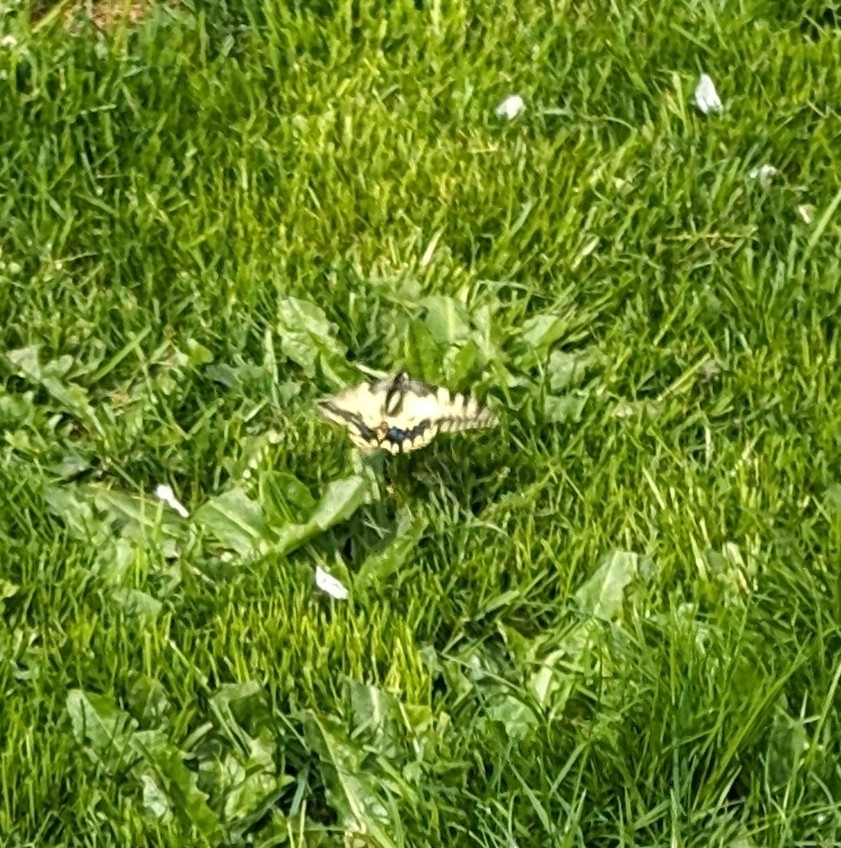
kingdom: Animalia
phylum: Arthropoda
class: Insecta
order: Lepidoptera
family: Papilionidae
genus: Papilio
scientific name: Papilio machaon
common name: Swallowtail
